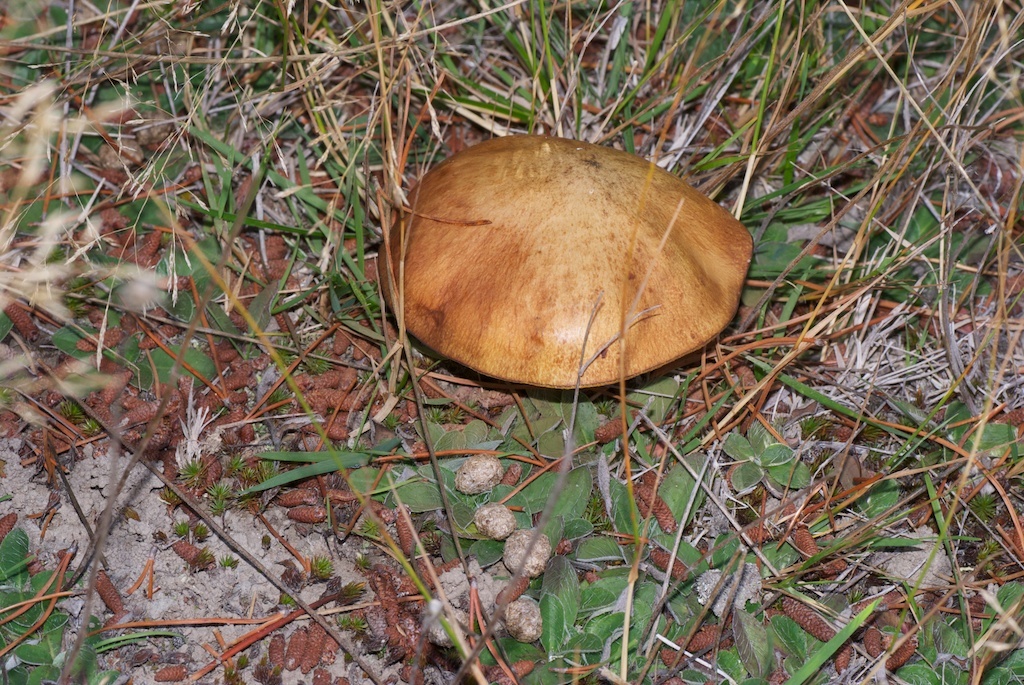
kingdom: Fungi
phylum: Basidiomycota
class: Agaricomycetes
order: Boletales
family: Suillaceae
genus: Suillus
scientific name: Suillus luteus
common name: Slippery jack
